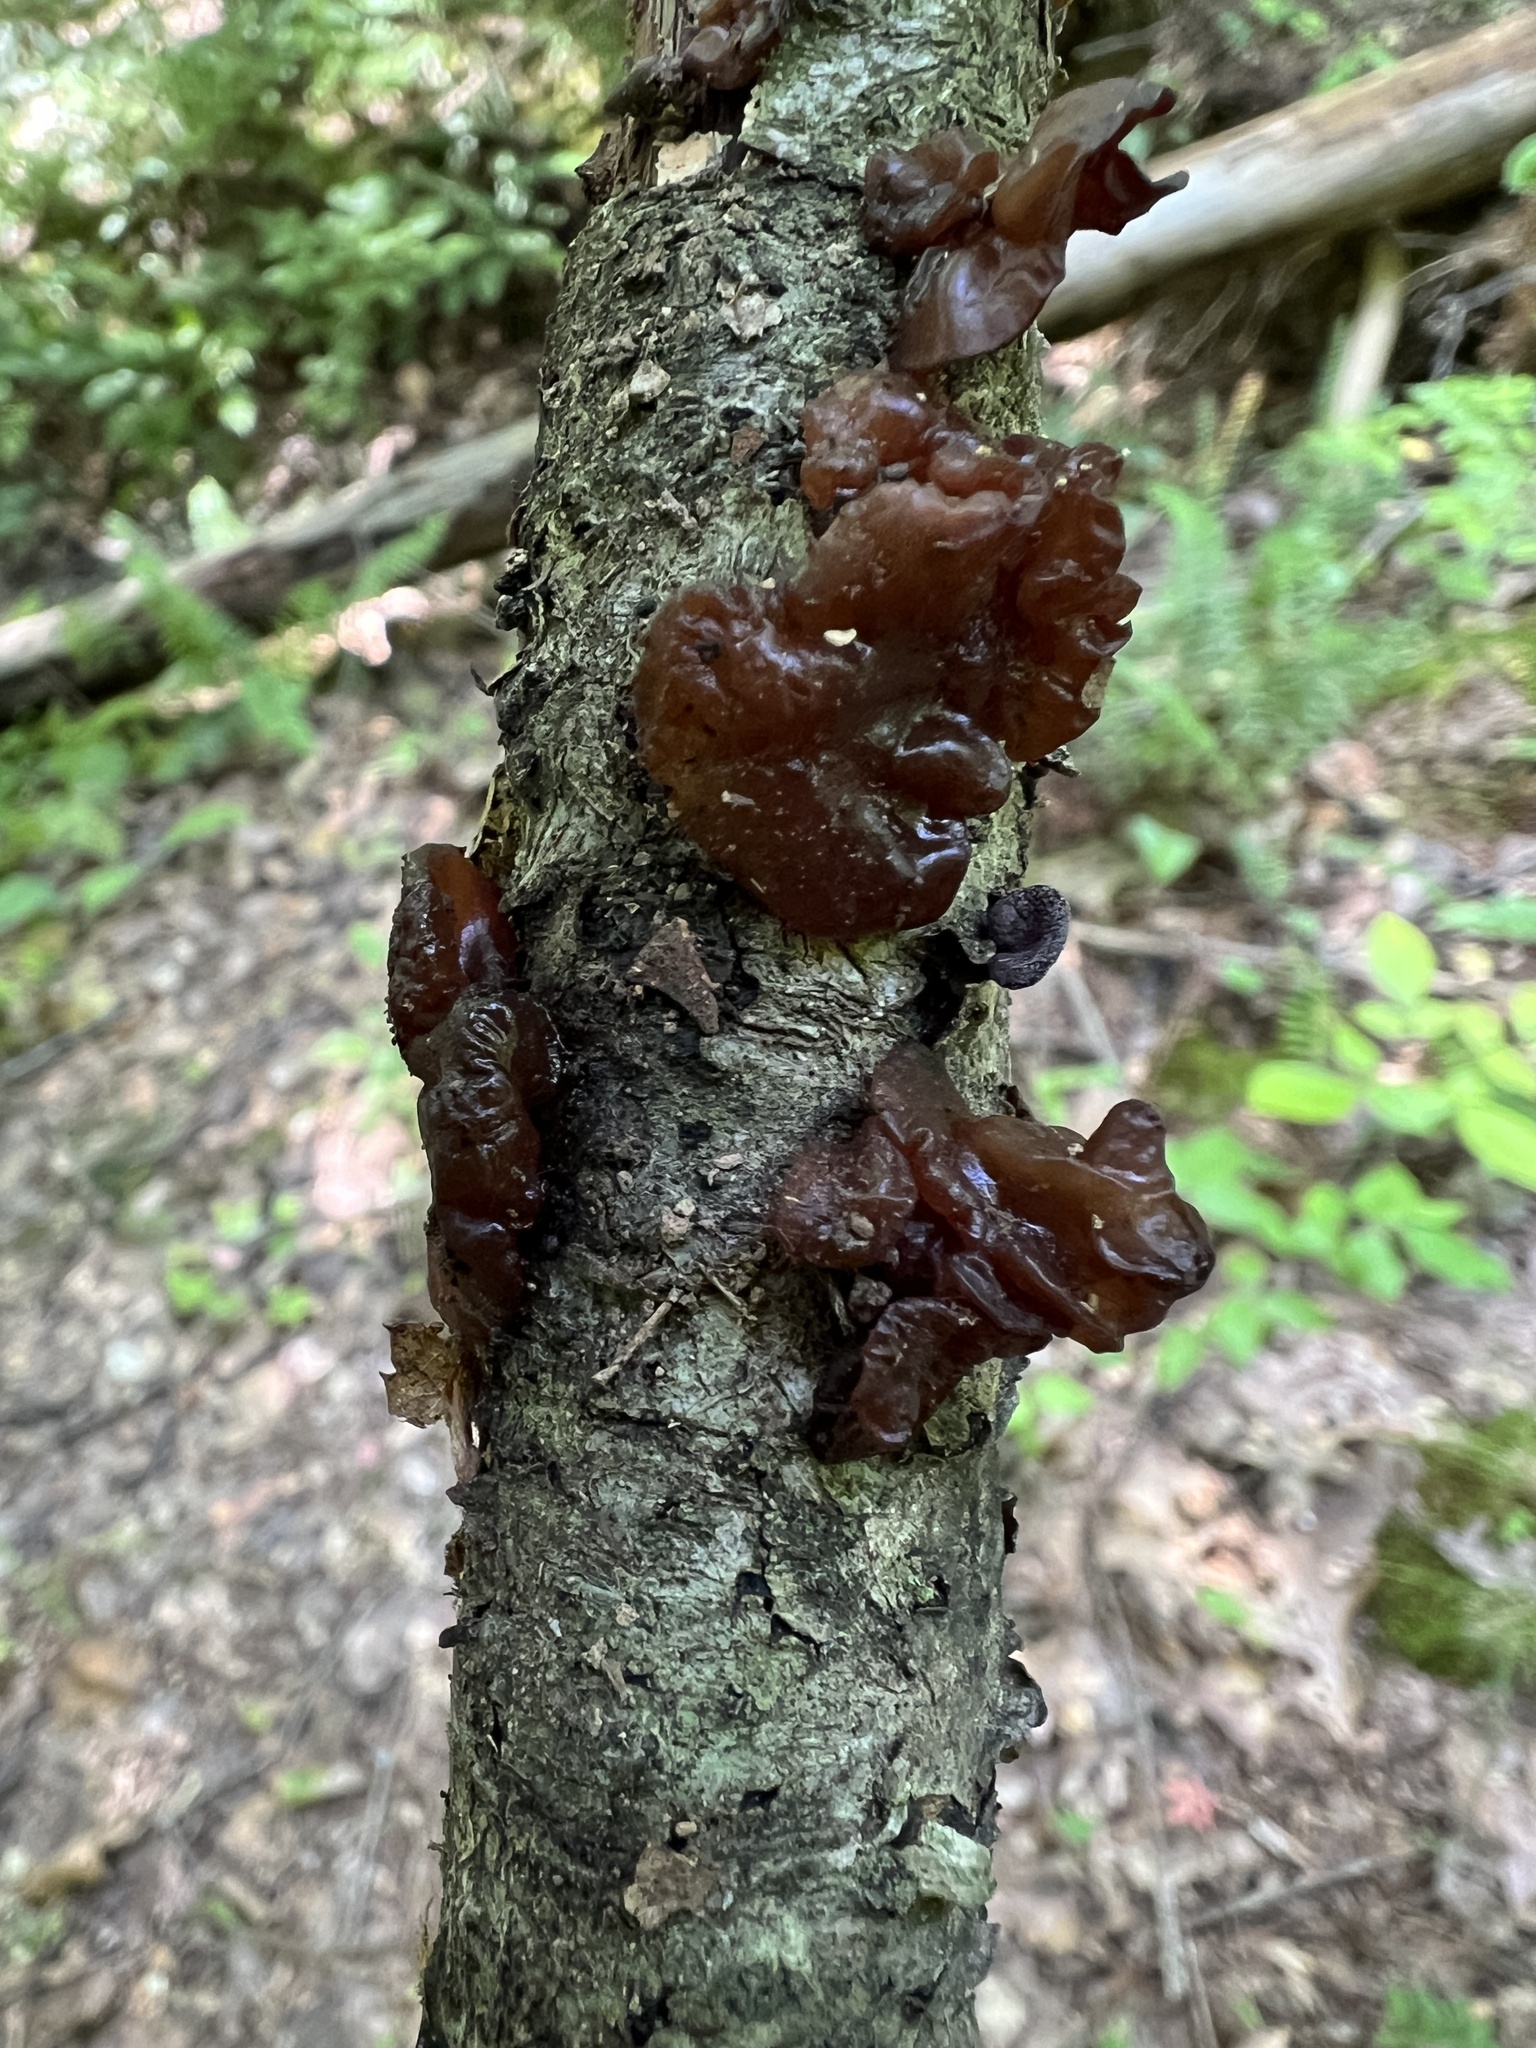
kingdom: Fungi
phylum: Basidiomycota
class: Agaricomycetes
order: Auriculariales
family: Auriculariaceae
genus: Exidia
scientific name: Exidia
